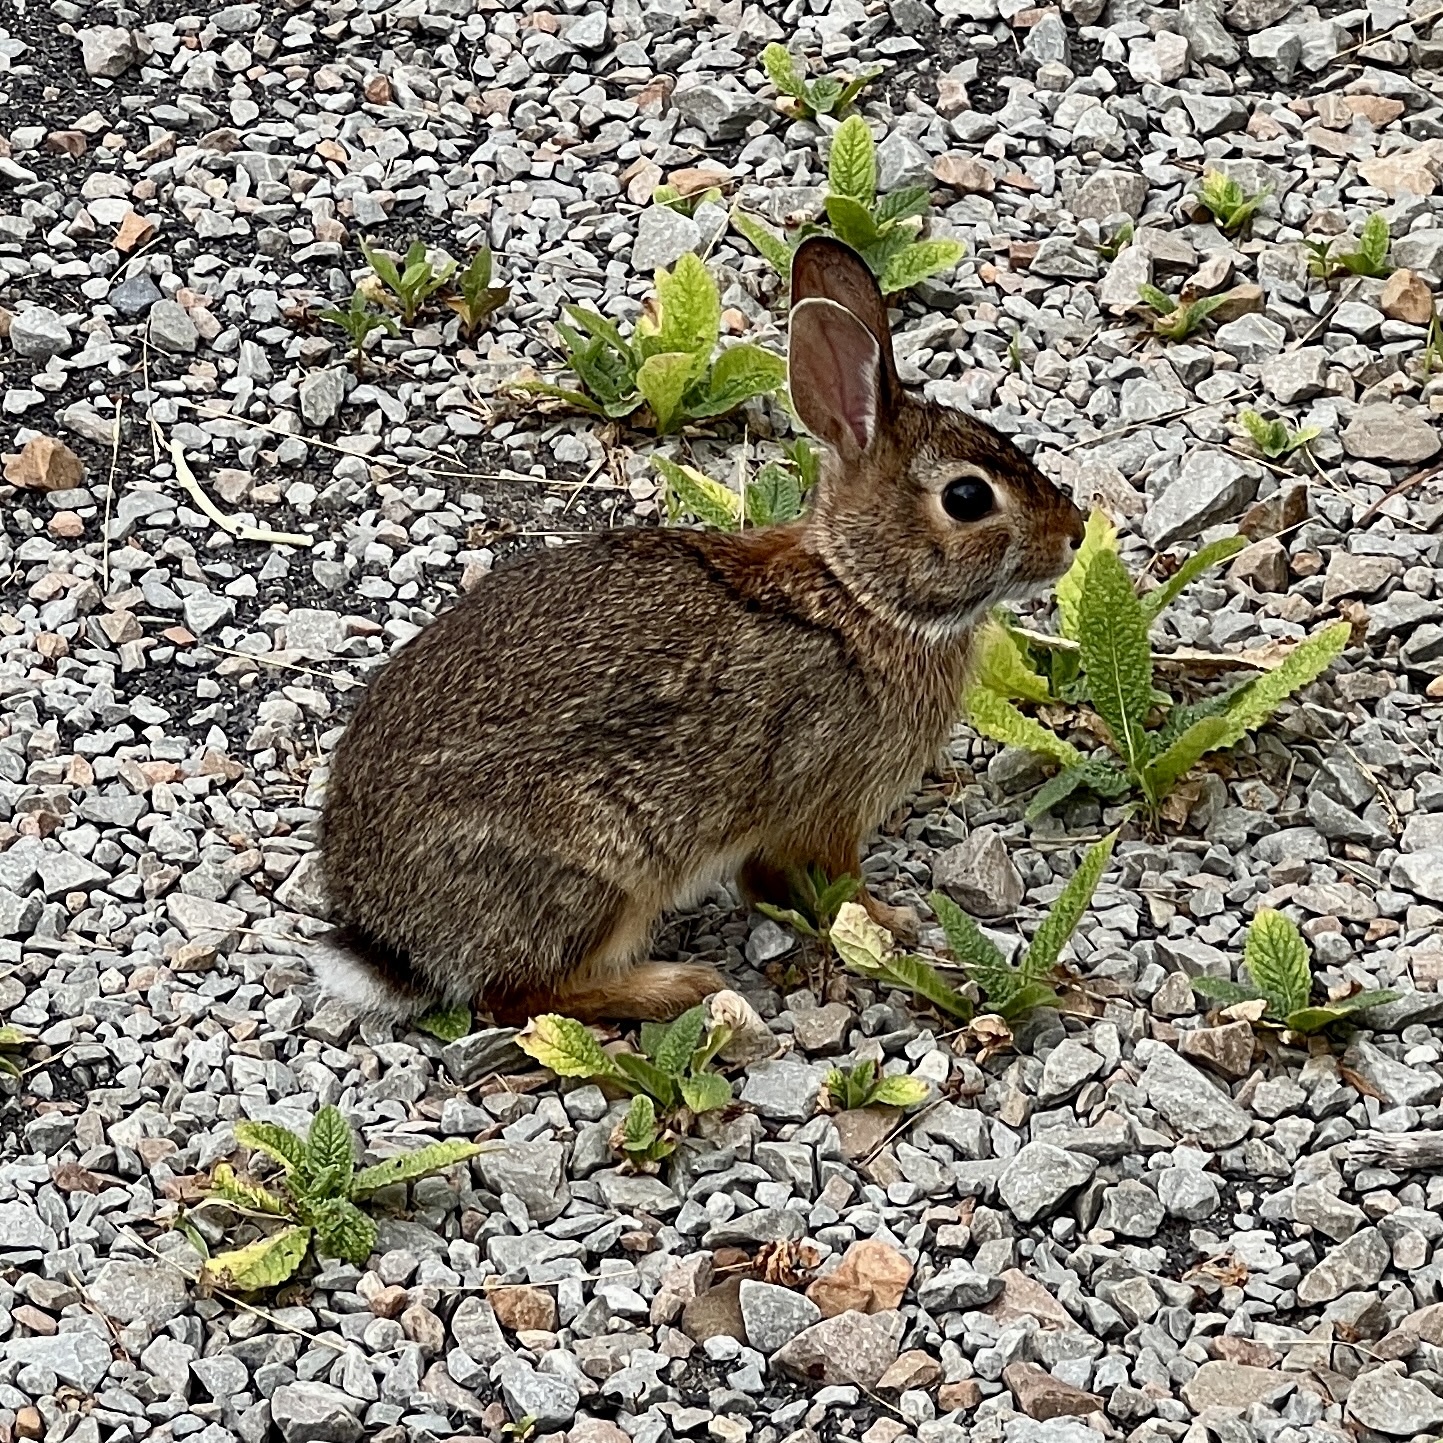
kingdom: Animalia
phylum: Chordata
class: Mammalia
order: Lagomorpha
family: Leporidae
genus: Sylvilagus
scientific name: Sylvilagus floridanus
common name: Eastern cottontail
